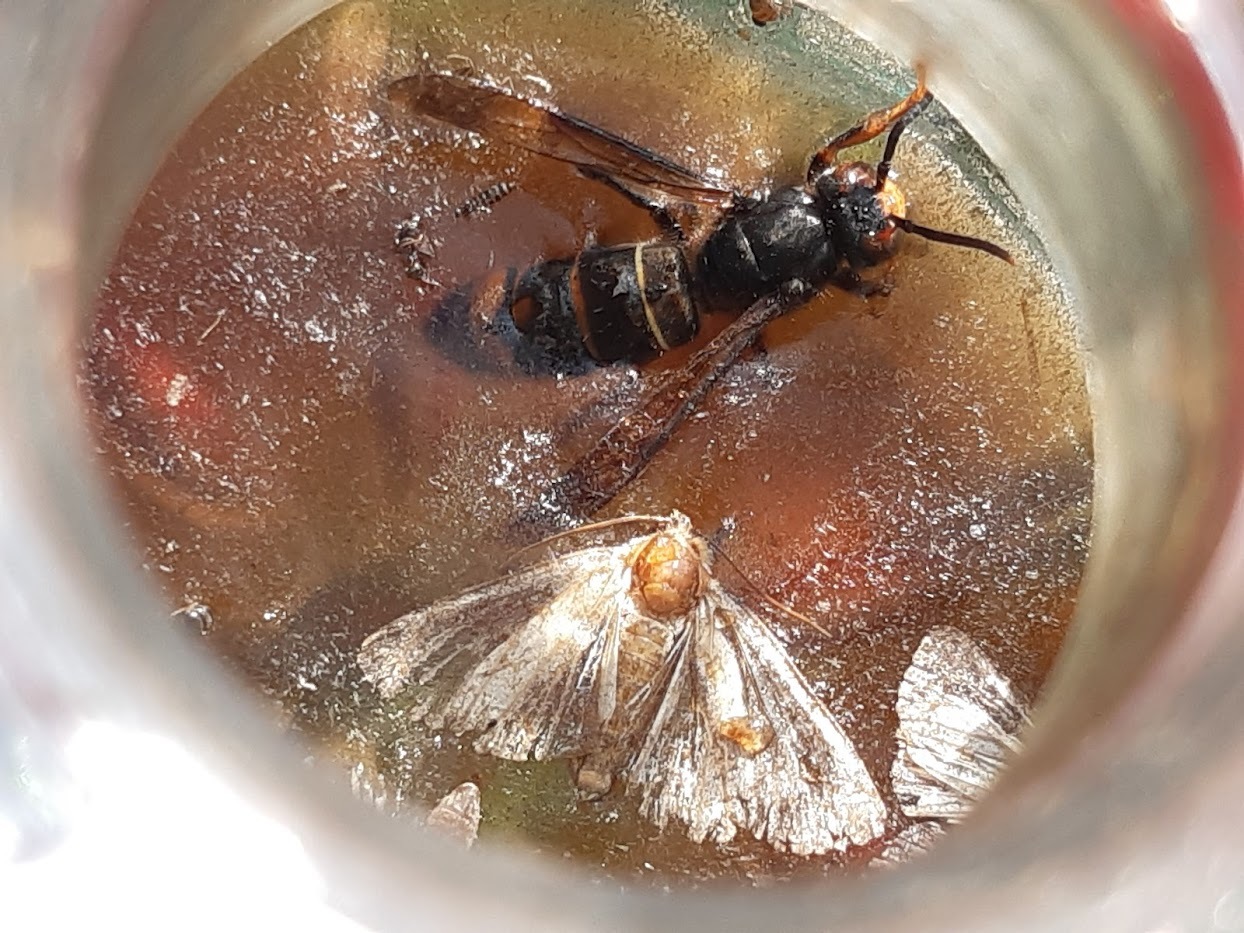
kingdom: Animalia
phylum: Arthropoda
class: Insecta
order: Hymenoptera
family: Vespidae
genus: Vespa
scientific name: Vespa velutina
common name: Asian hornet
